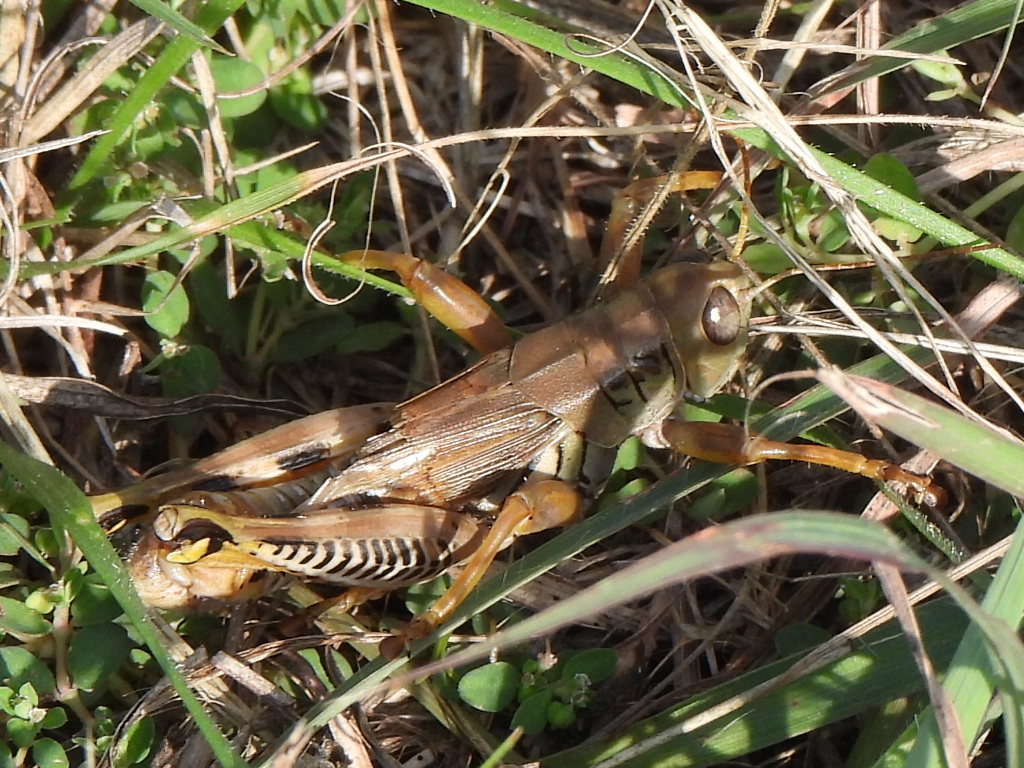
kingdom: Animalia
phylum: Arthropoda
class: Insecta
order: Orthoptera
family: Acrididae
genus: Melanoplus
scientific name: Melanoplus differentialis
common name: Differential grasshopper
